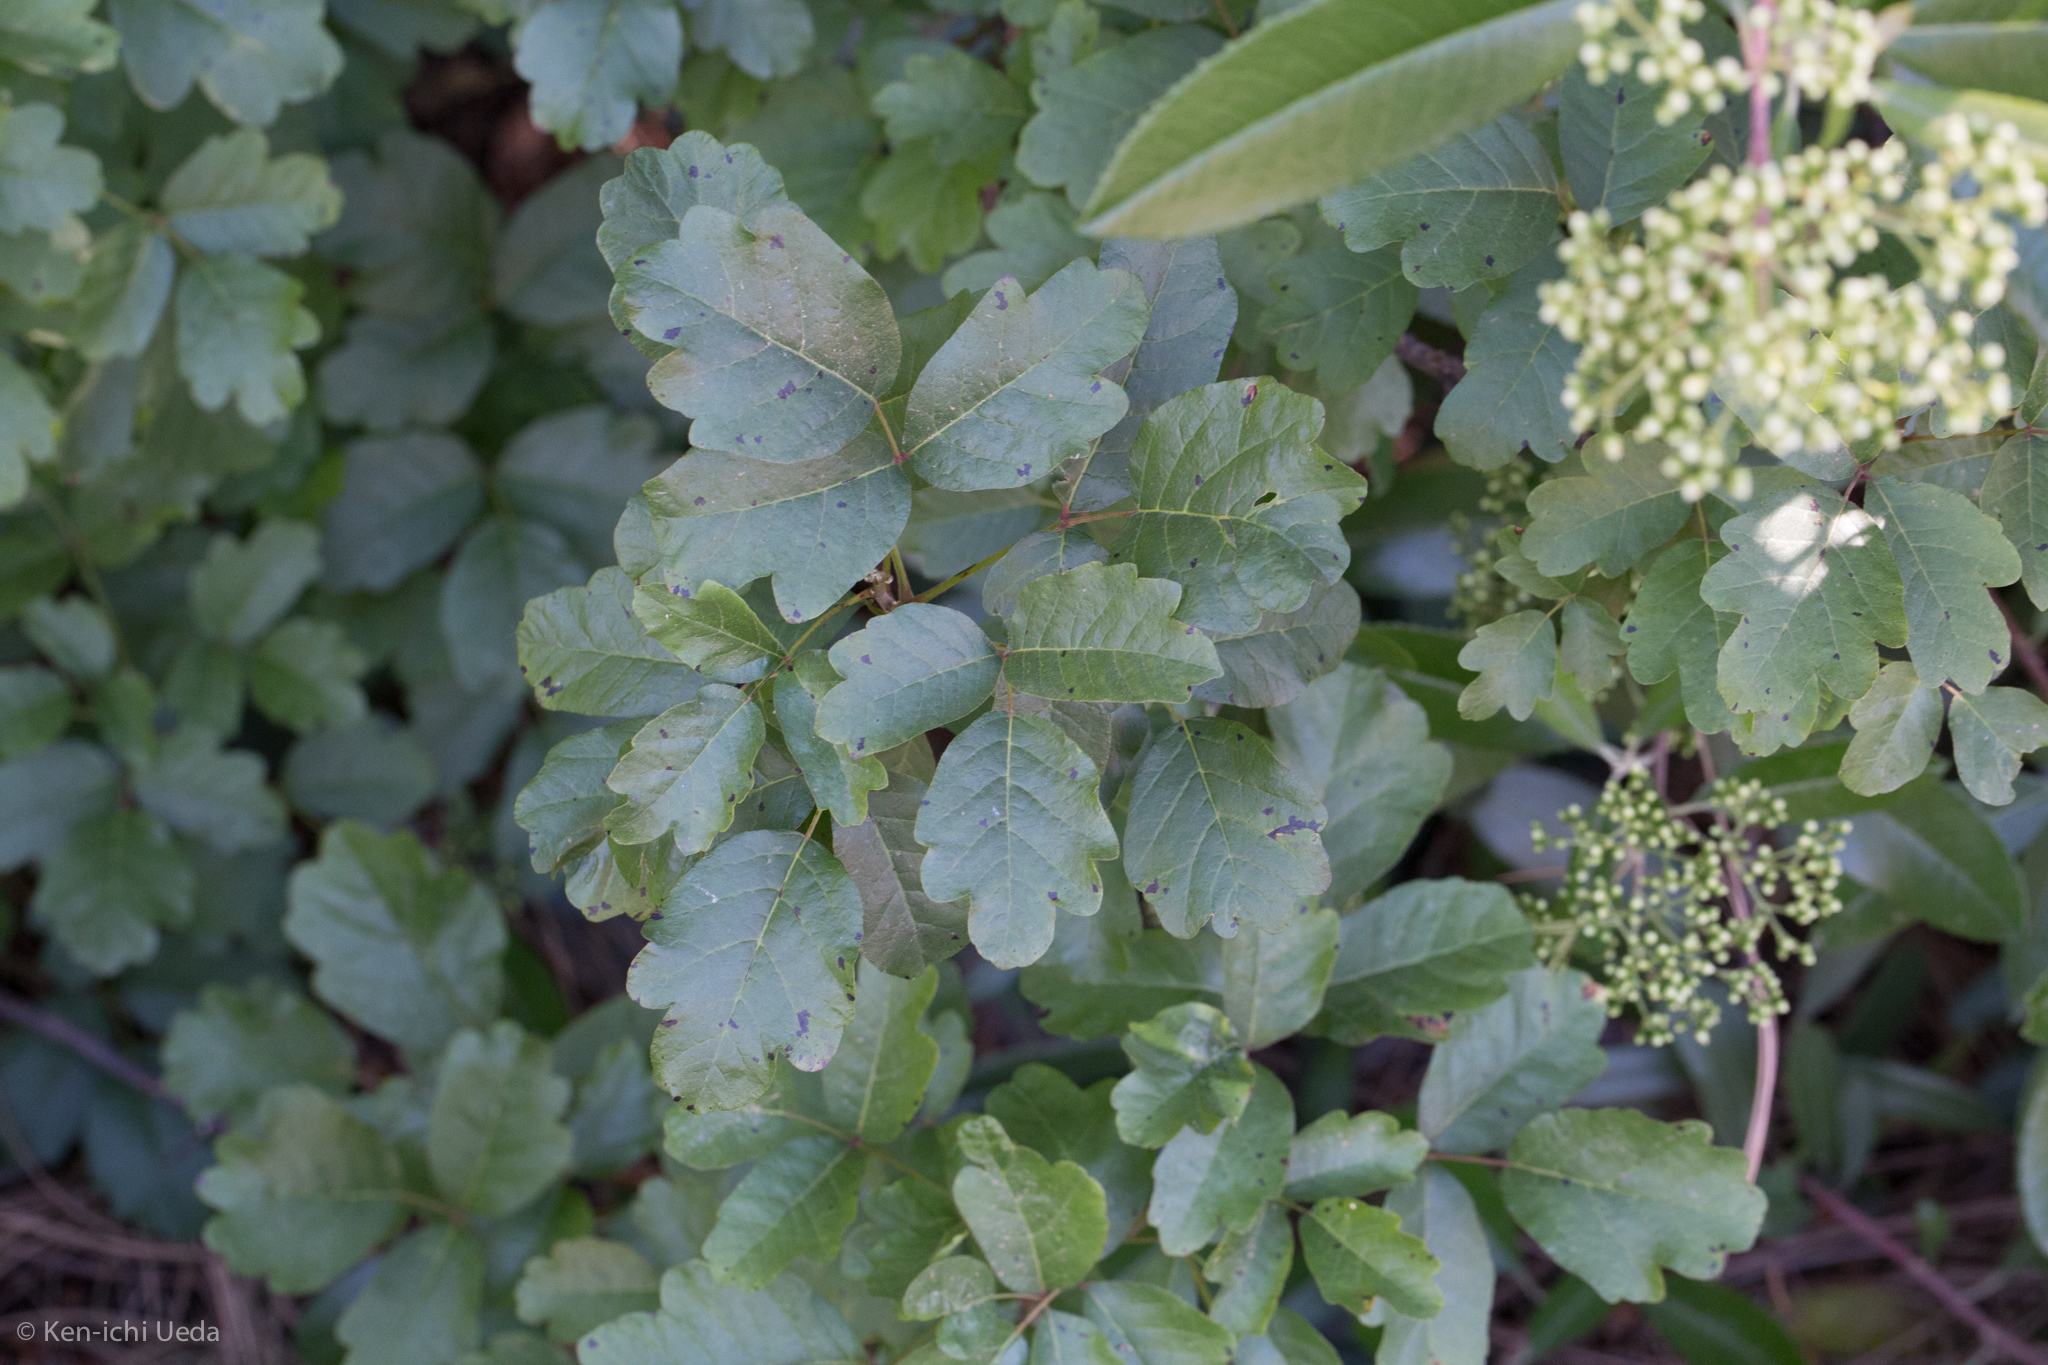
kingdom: Plantae
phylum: Tracheophyta
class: Magnoliopsida
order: Sapindales
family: Anacardiaceae
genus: Toxicodendron
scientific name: Toxicodendron diversilobum
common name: Pacific poison-oak
